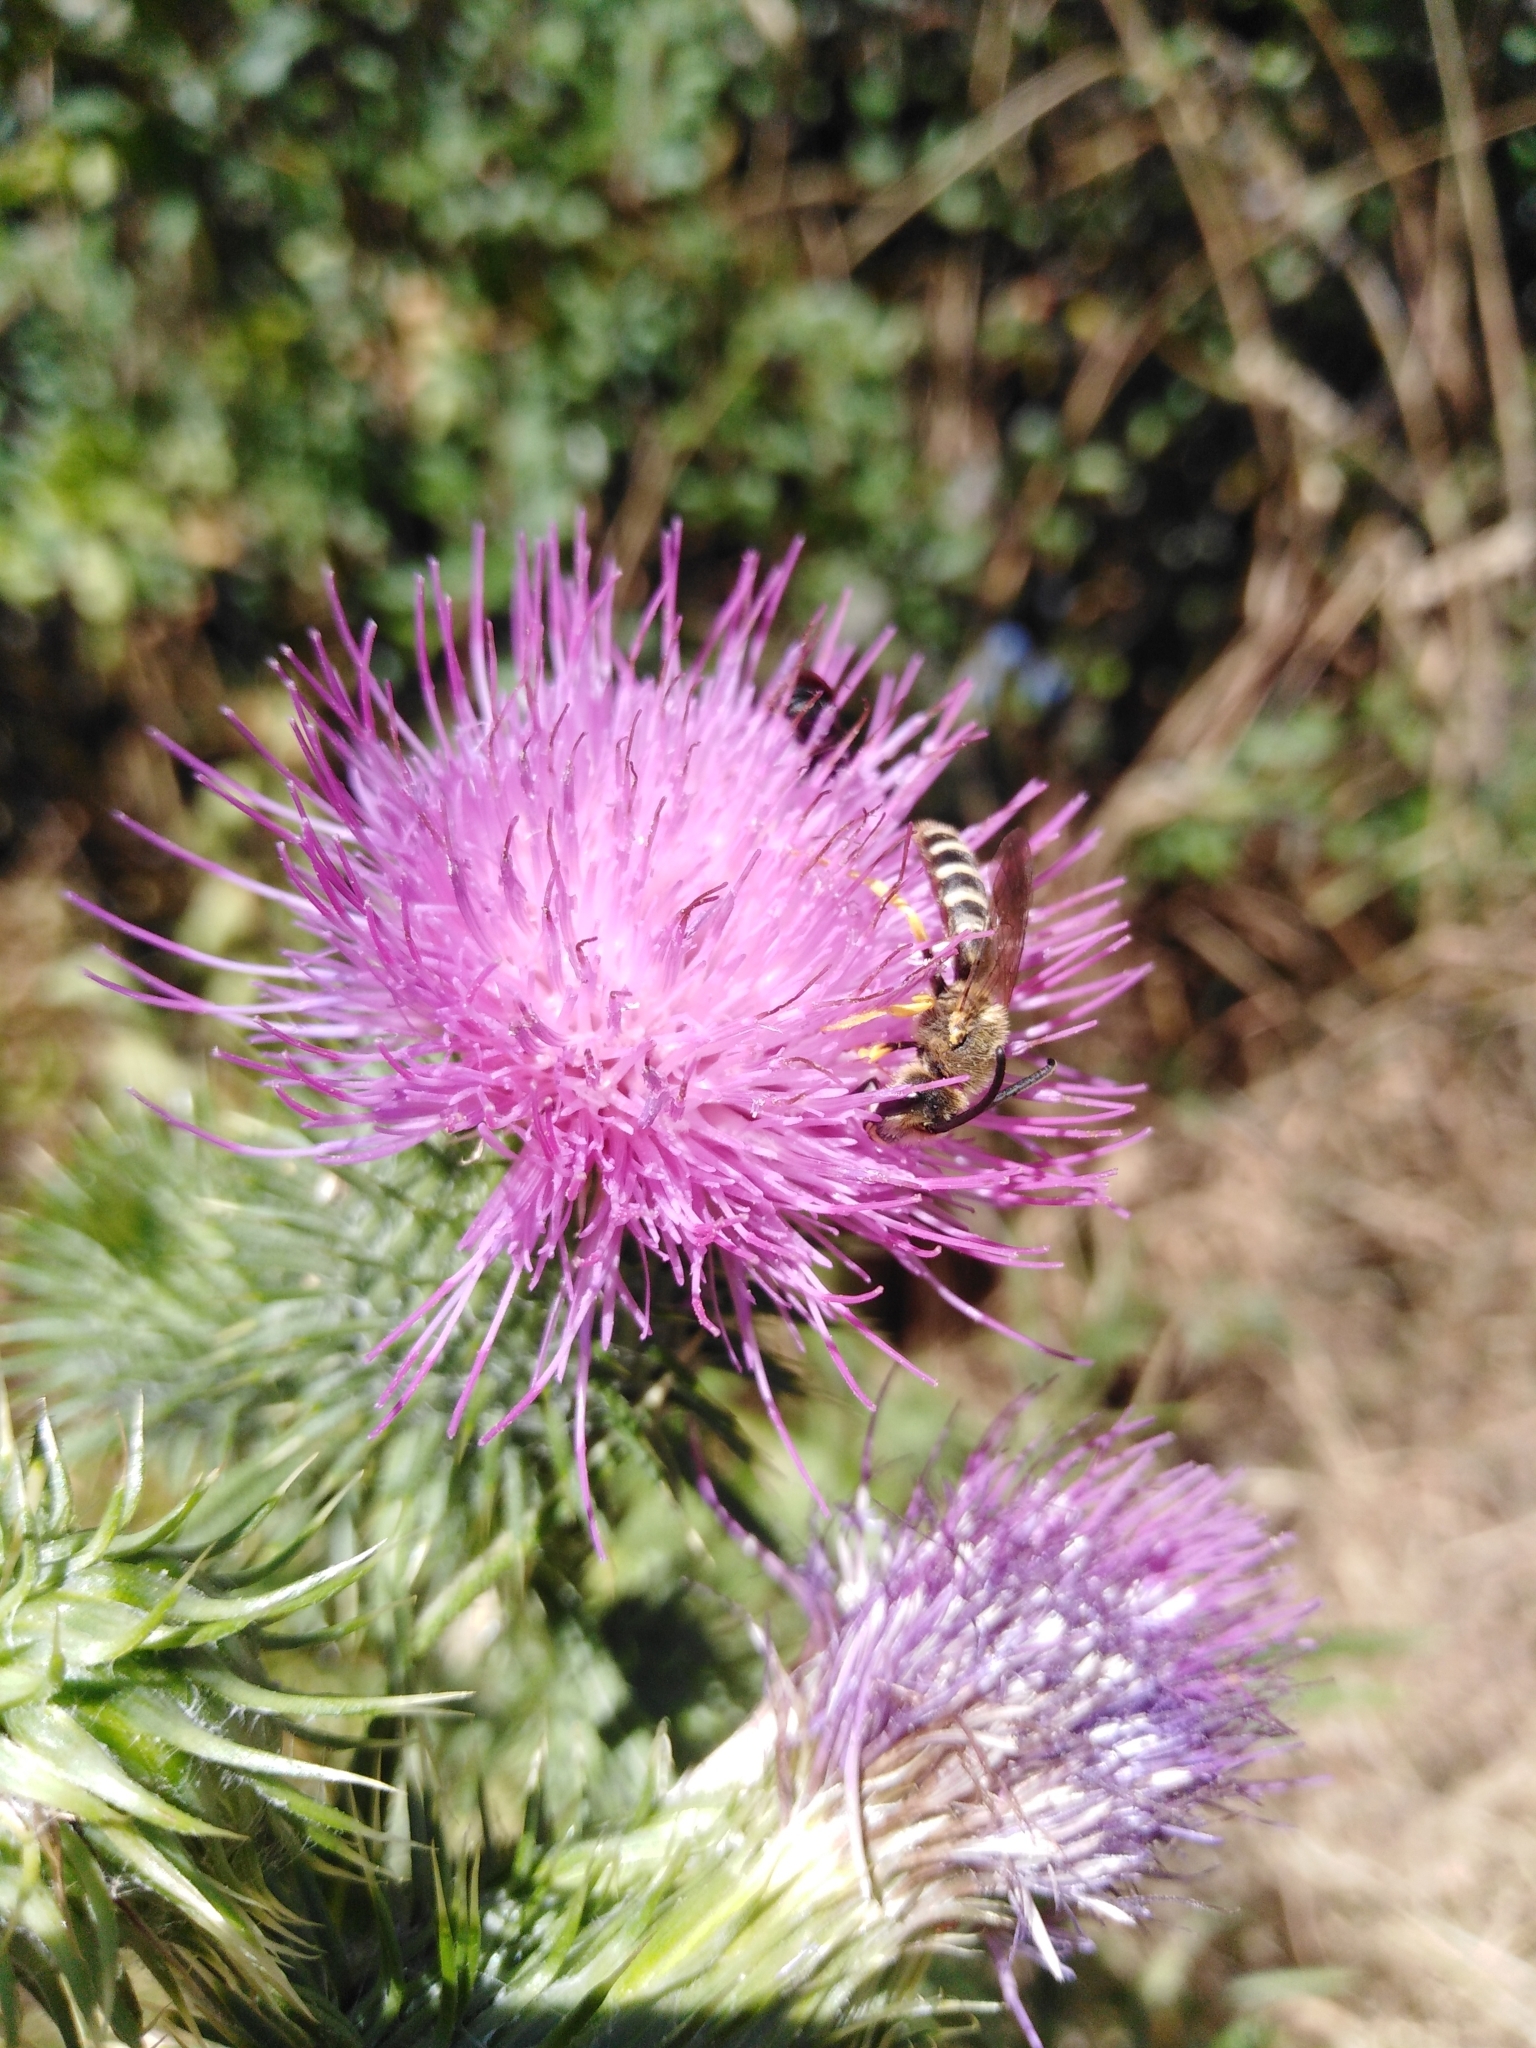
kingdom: Animalia
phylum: Arthropoda
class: Insecta
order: Hymenoptera
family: Halictidae
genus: Halictus
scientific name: Halictus scabiosae
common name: Great banded furrow bee
